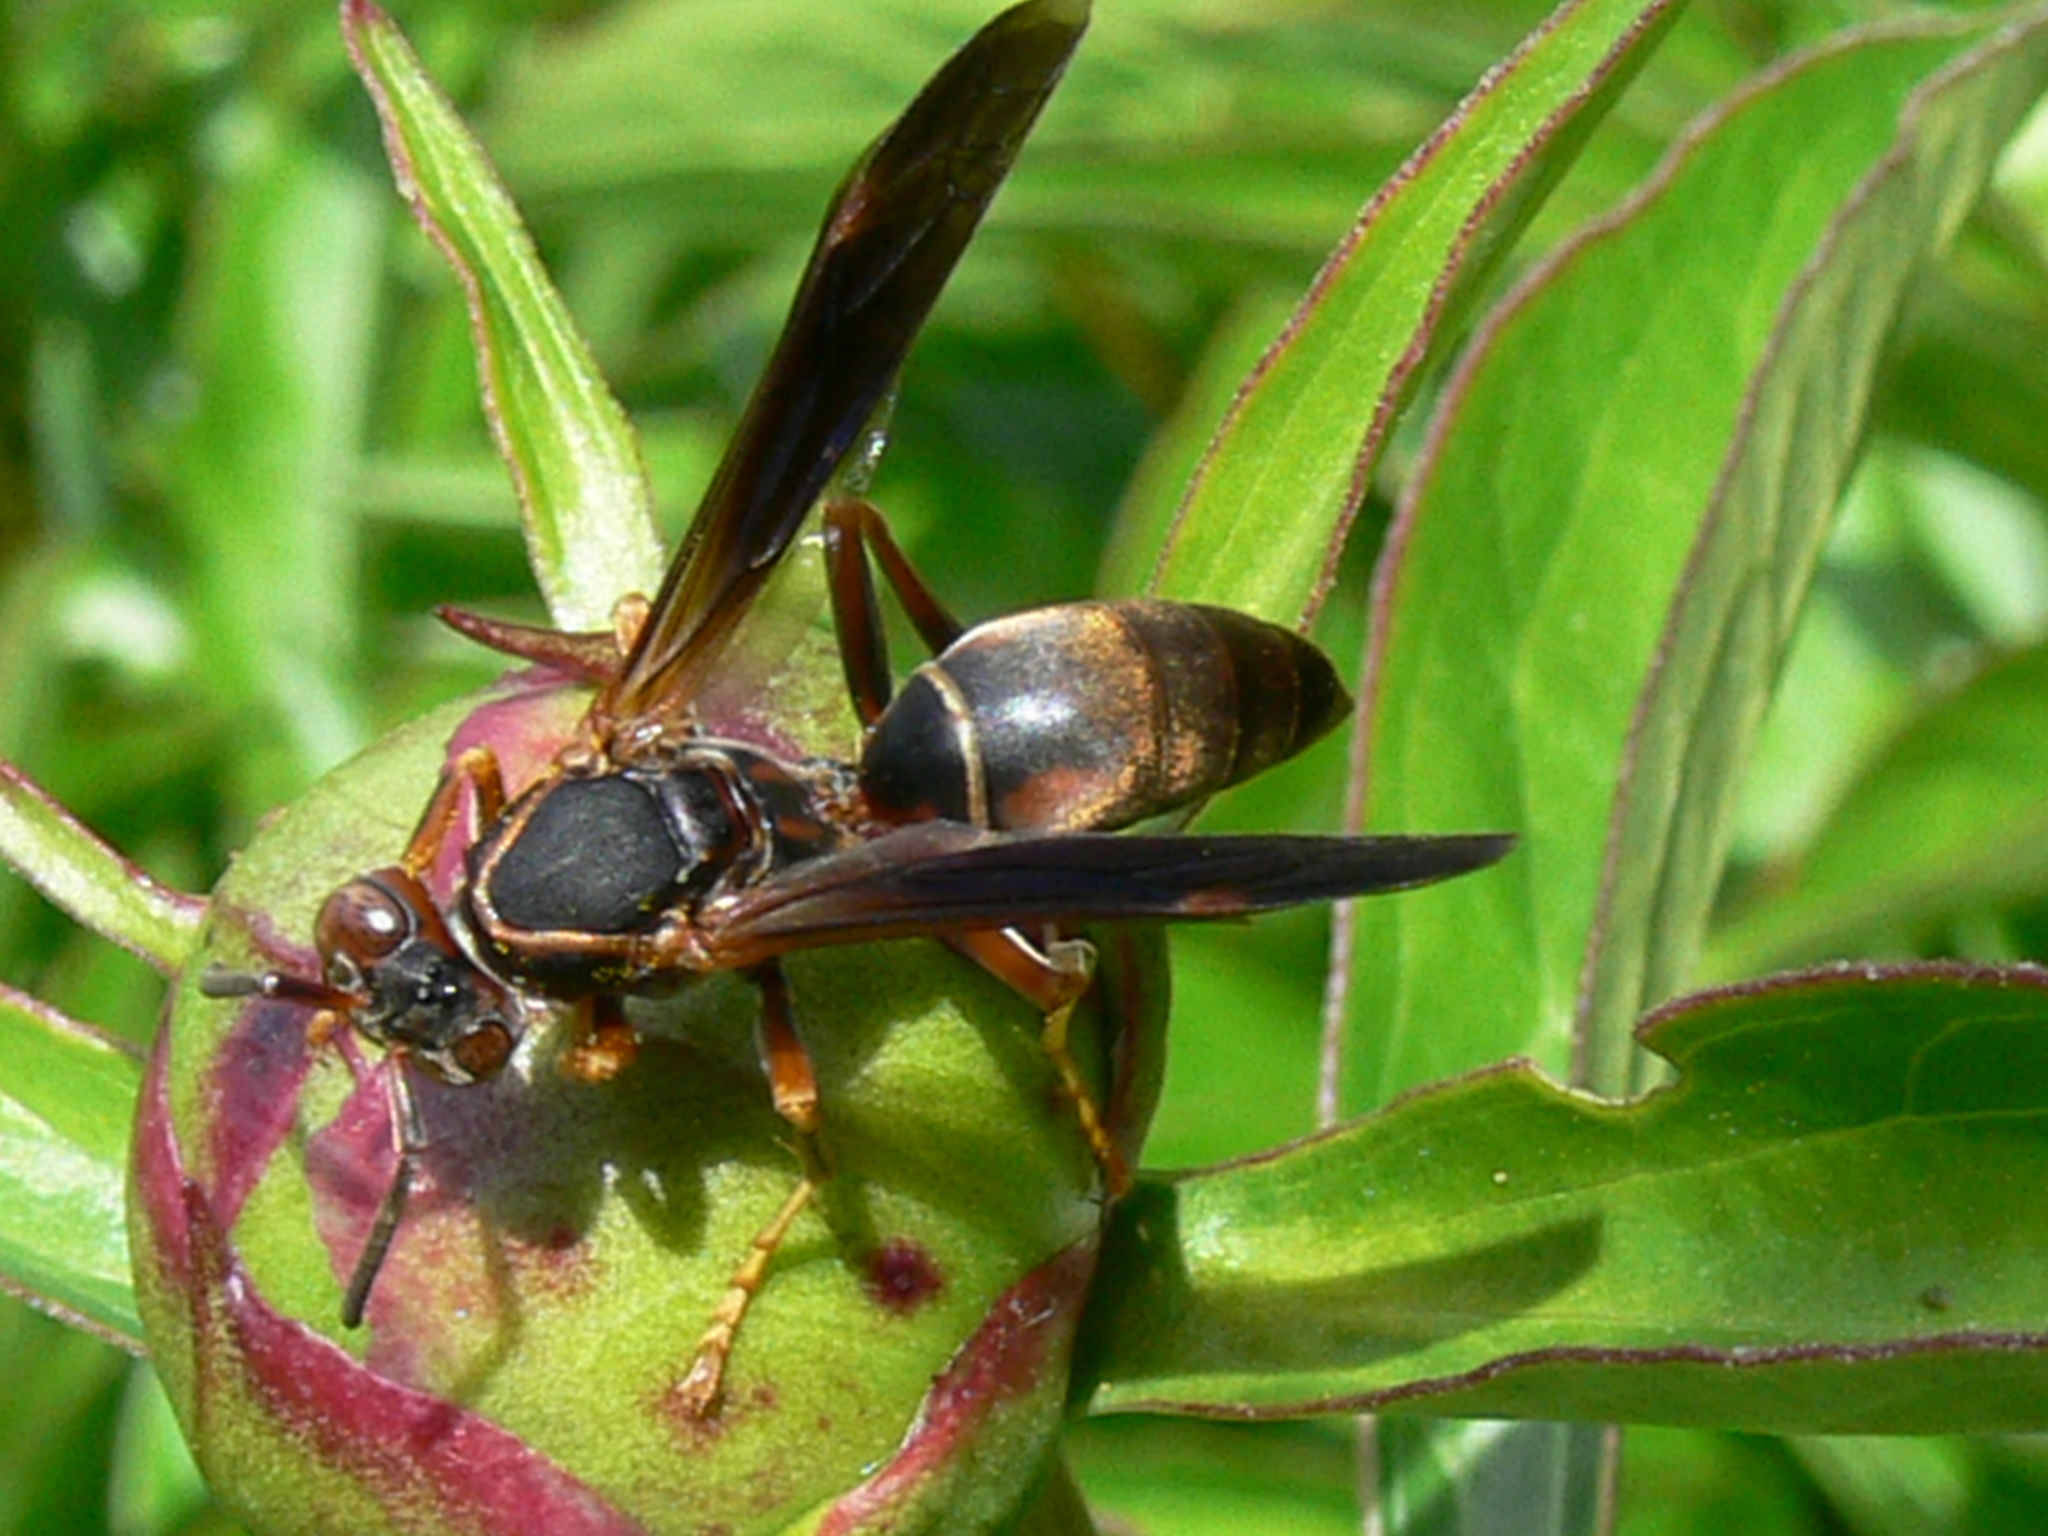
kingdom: Animalia
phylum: Arthropoda
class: Insecta
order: Hymenoptera
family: Eumenidae
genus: Polistes
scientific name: Polistes fuscatus
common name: Dark paper wasp
